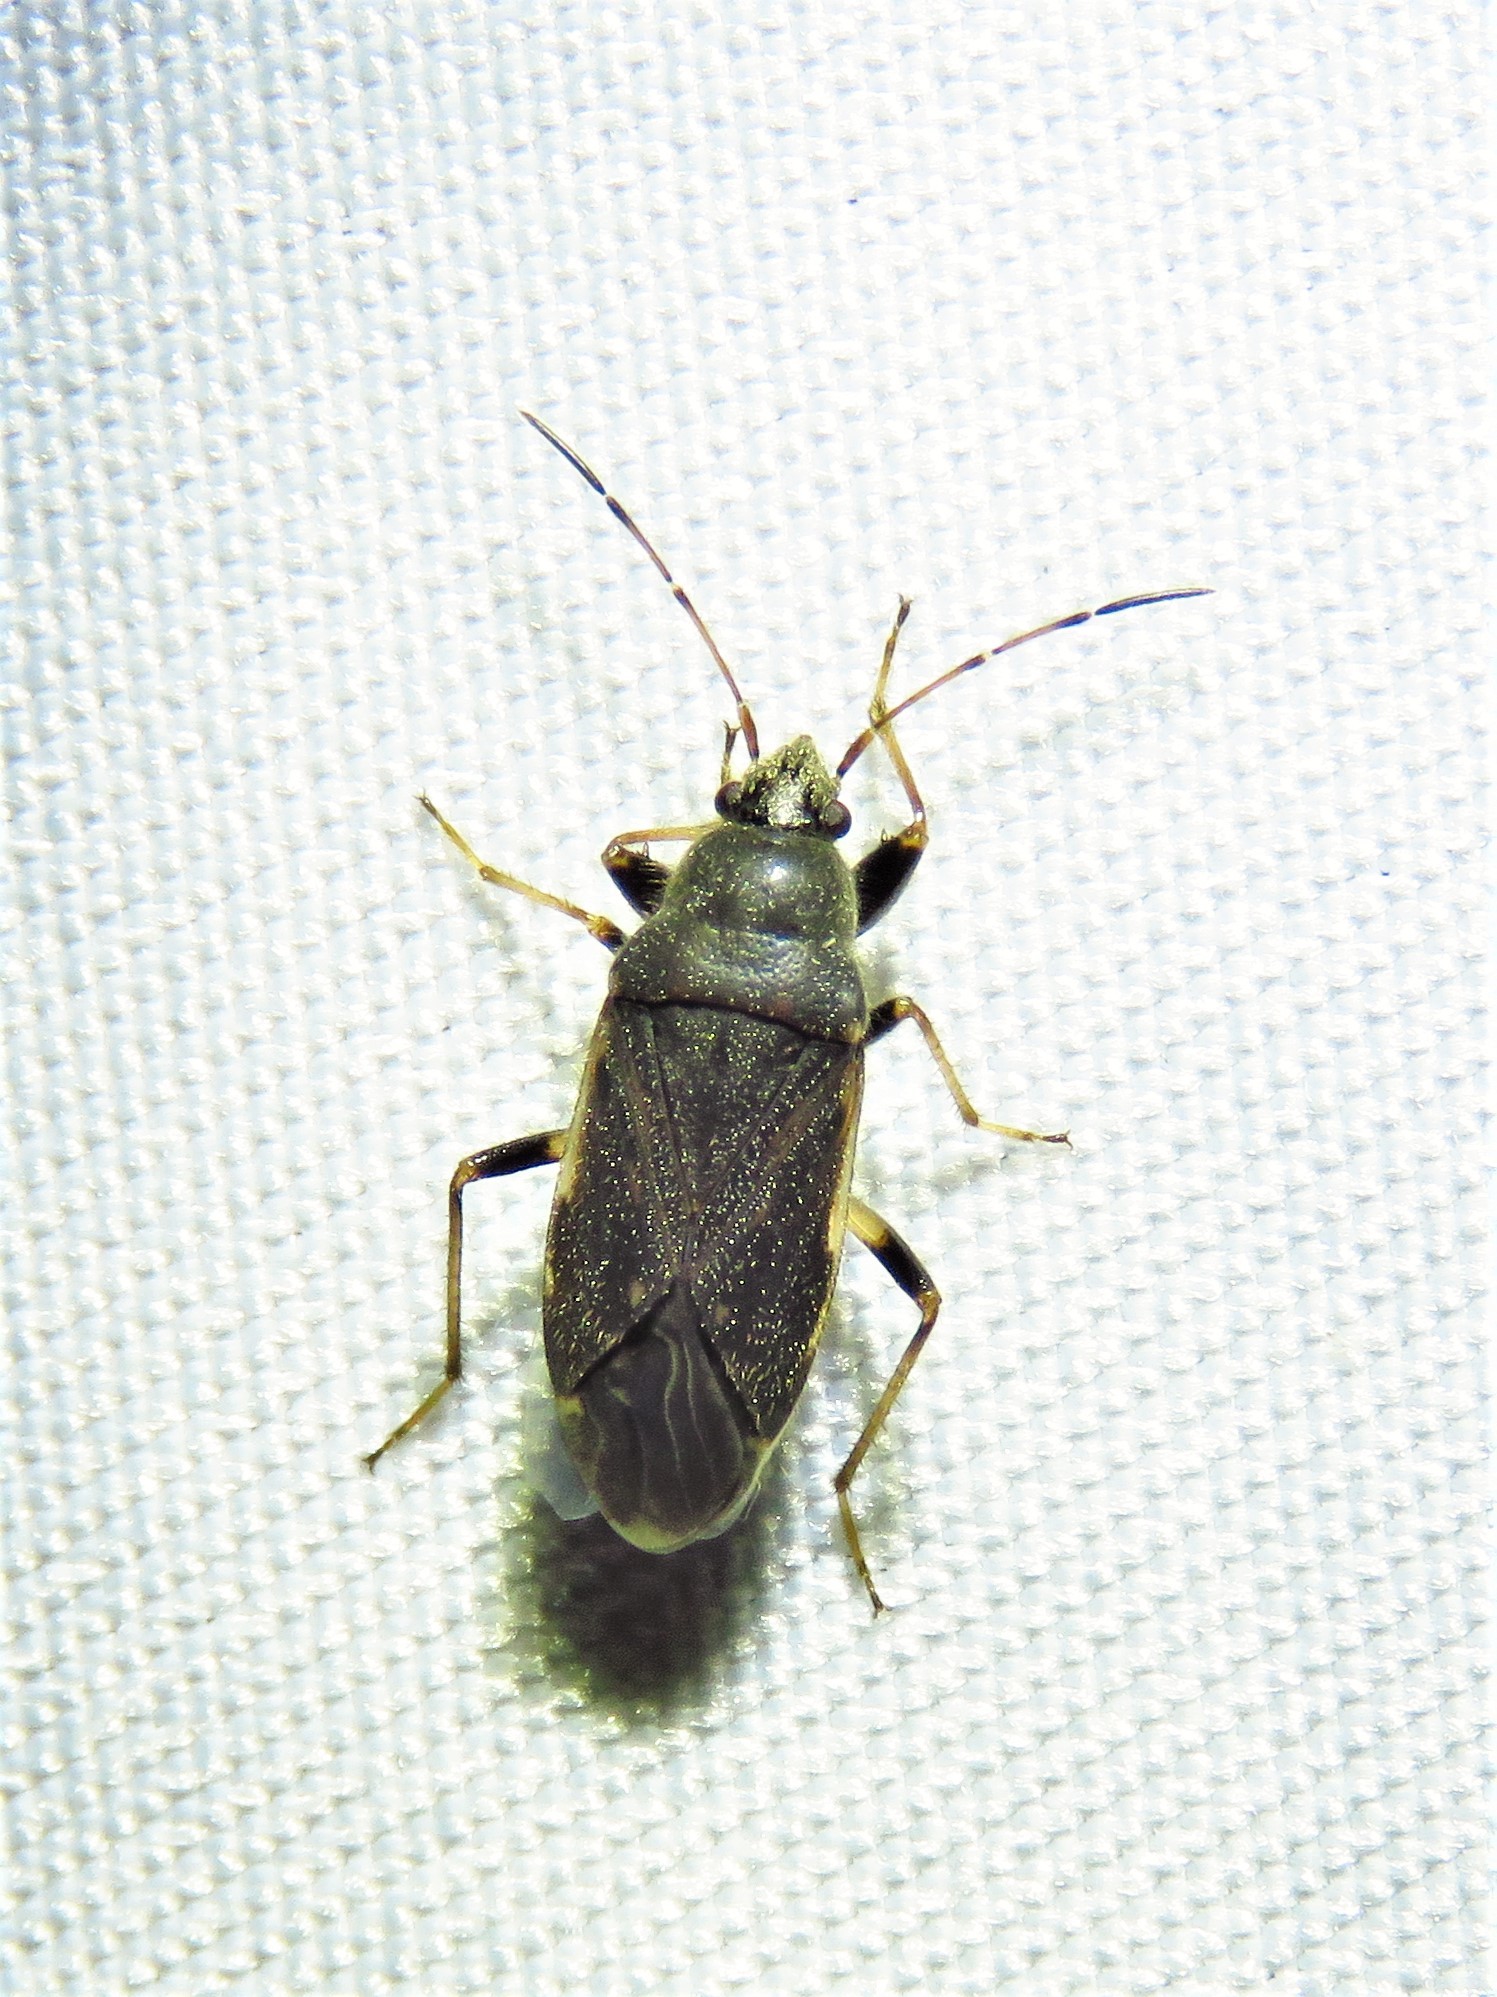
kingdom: Animalia
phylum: Arthropoda
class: Insecta
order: Hemiptera
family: Rhyparochromidae
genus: Perigenes
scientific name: Perigenes similis
